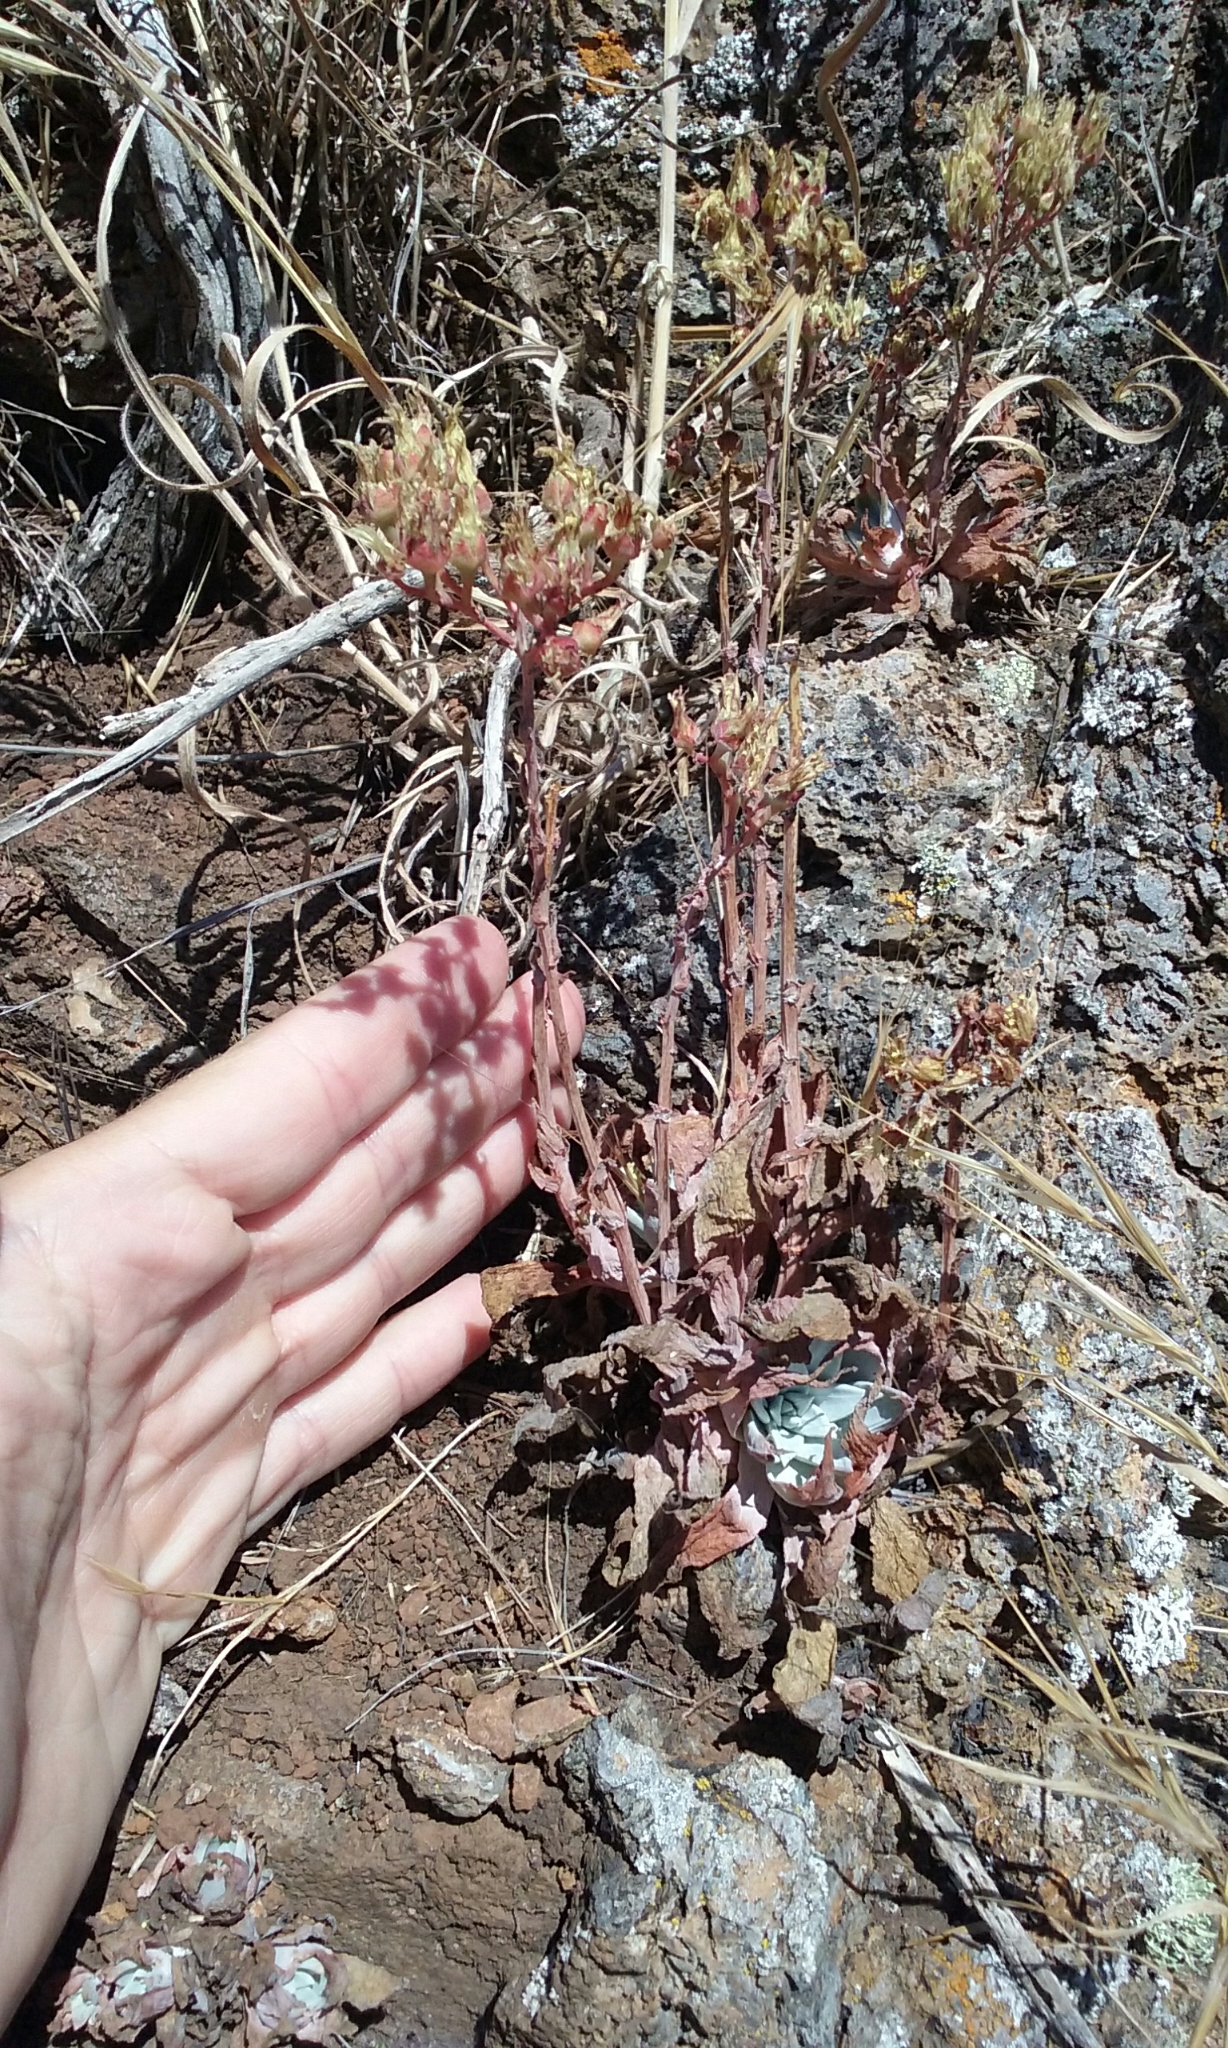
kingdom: Plantae
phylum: Tracheophyta
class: Magnoliopsida
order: Saxifragales
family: Crassulaceae
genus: Dudleya
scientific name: Dudleya cymosa
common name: Canyon dudleya
